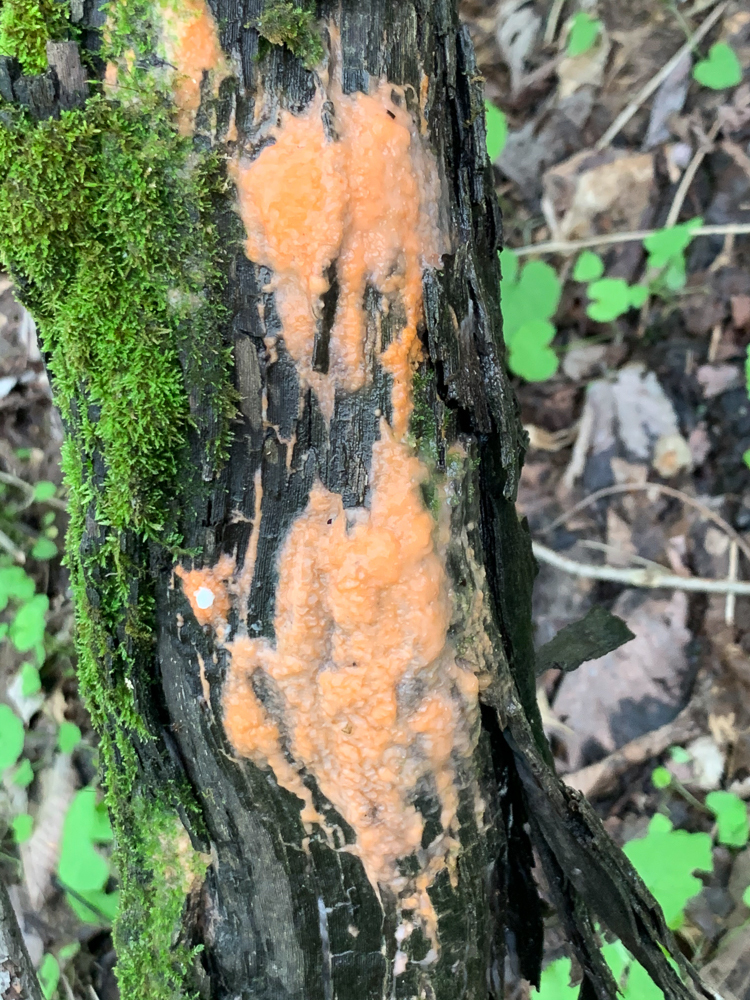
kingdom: Fungi
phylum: Ascomycota
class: Sordariomycetes
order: Hypocreales
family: Nectriaceae
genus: Fusicolla
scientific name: Fusicolla merismoides
